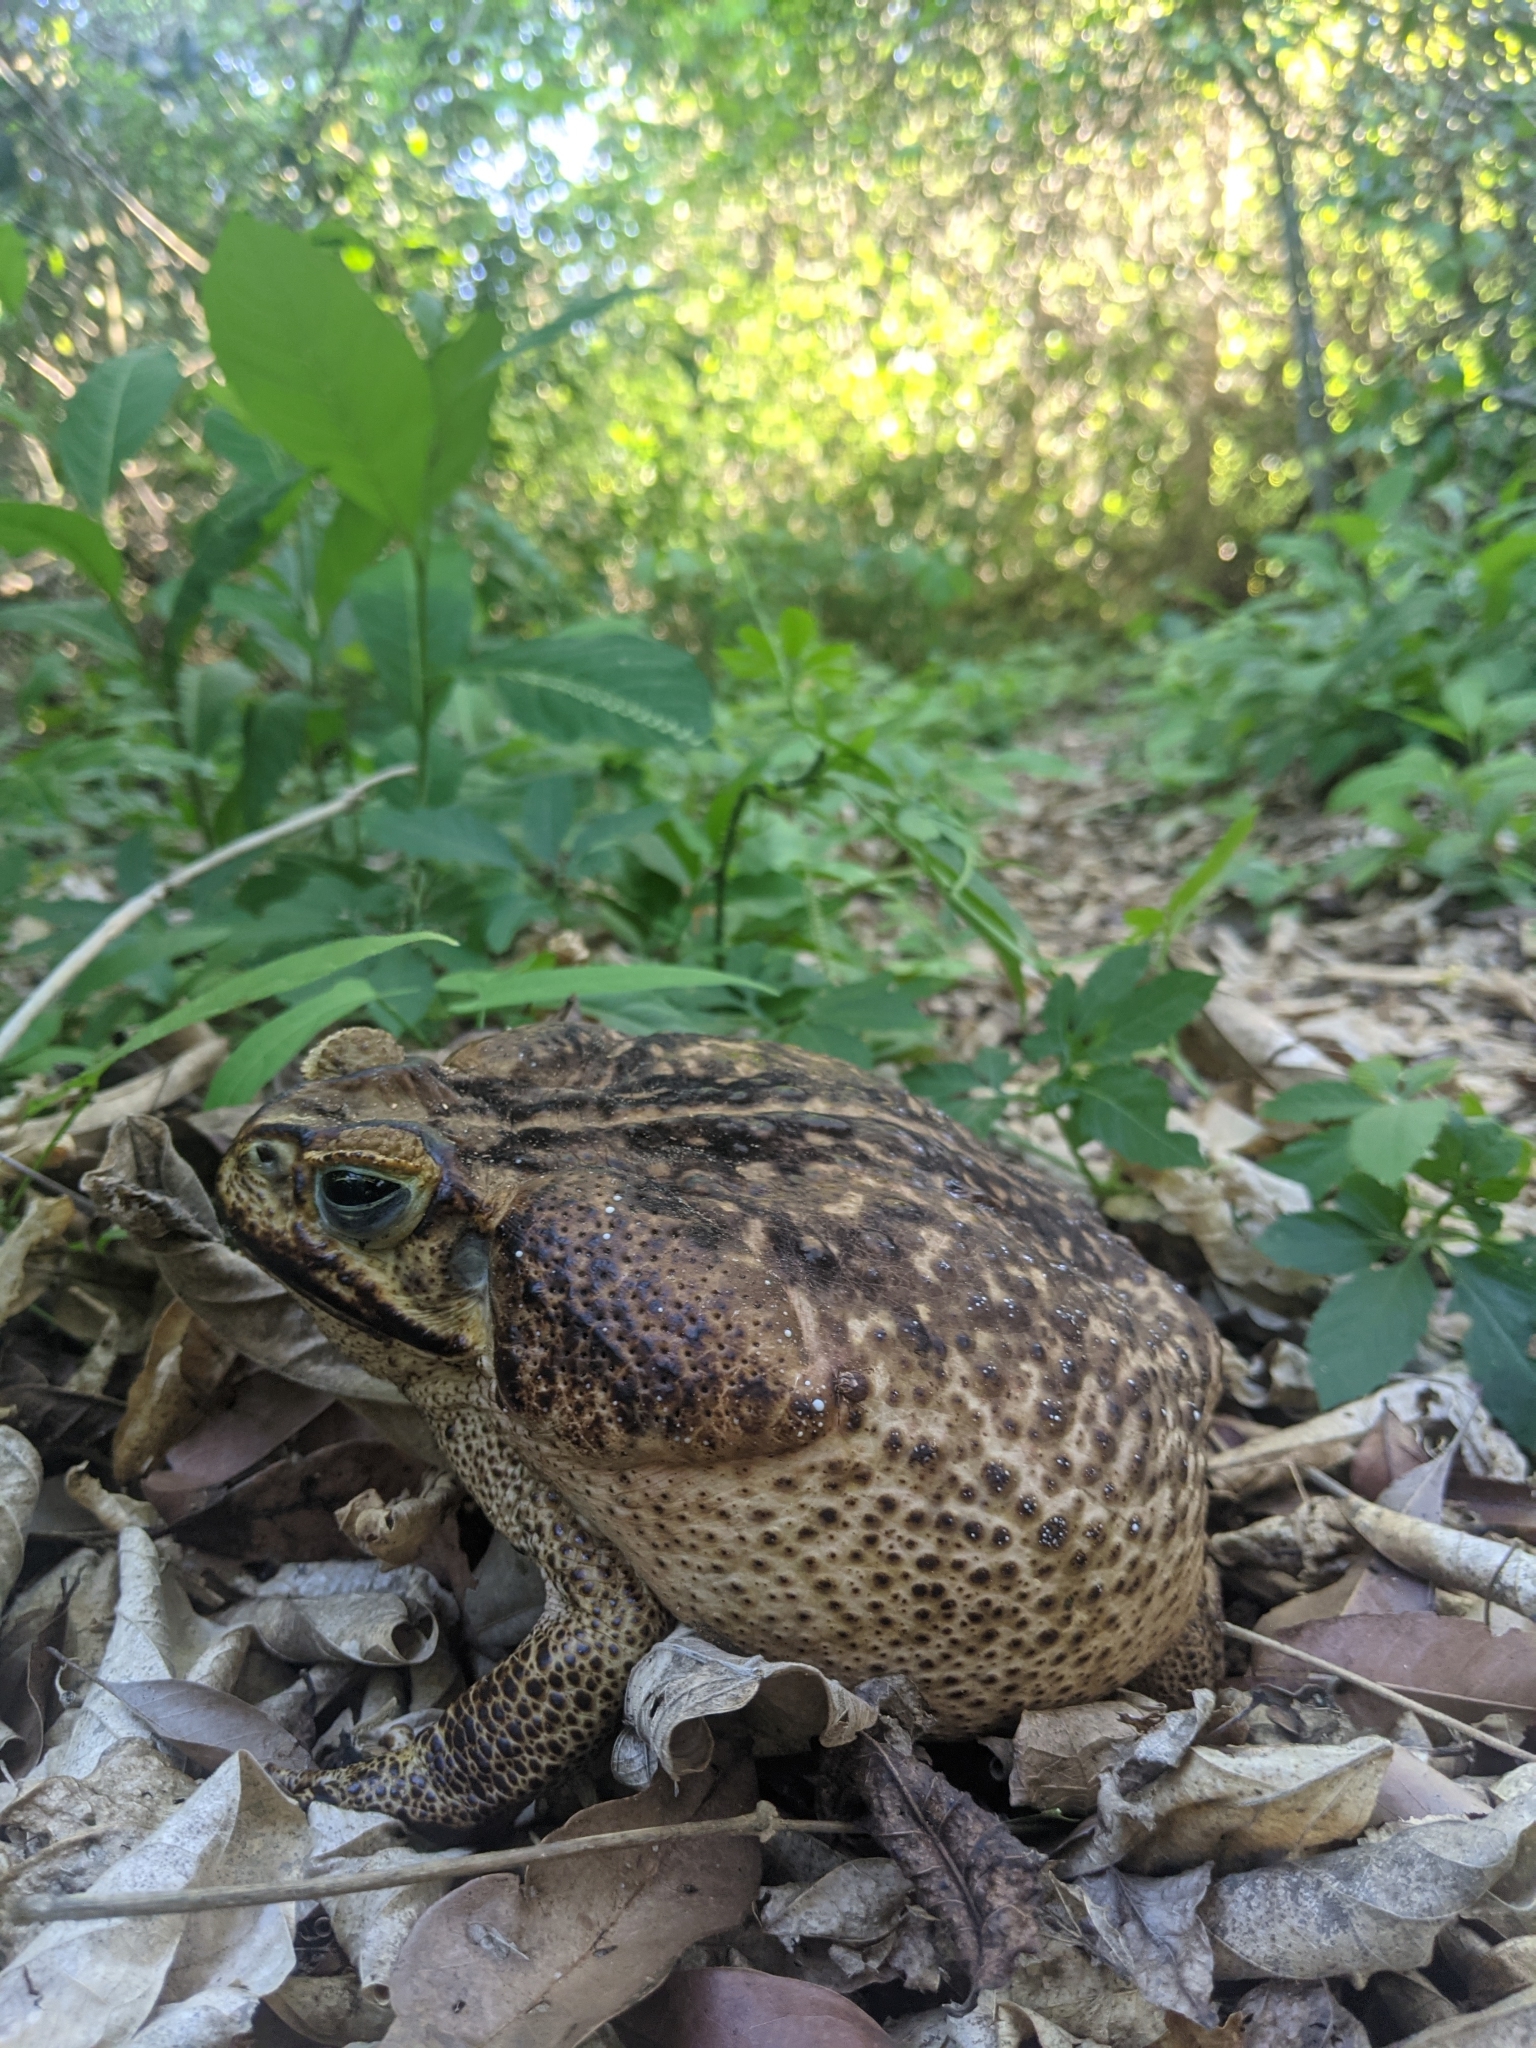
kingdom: Animalia
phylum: Chordata
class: Amphibia
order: Anura
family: Bufonidae
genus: Rhinella
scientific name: Rhinella horribilis
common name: Mesoamerican cane toad
